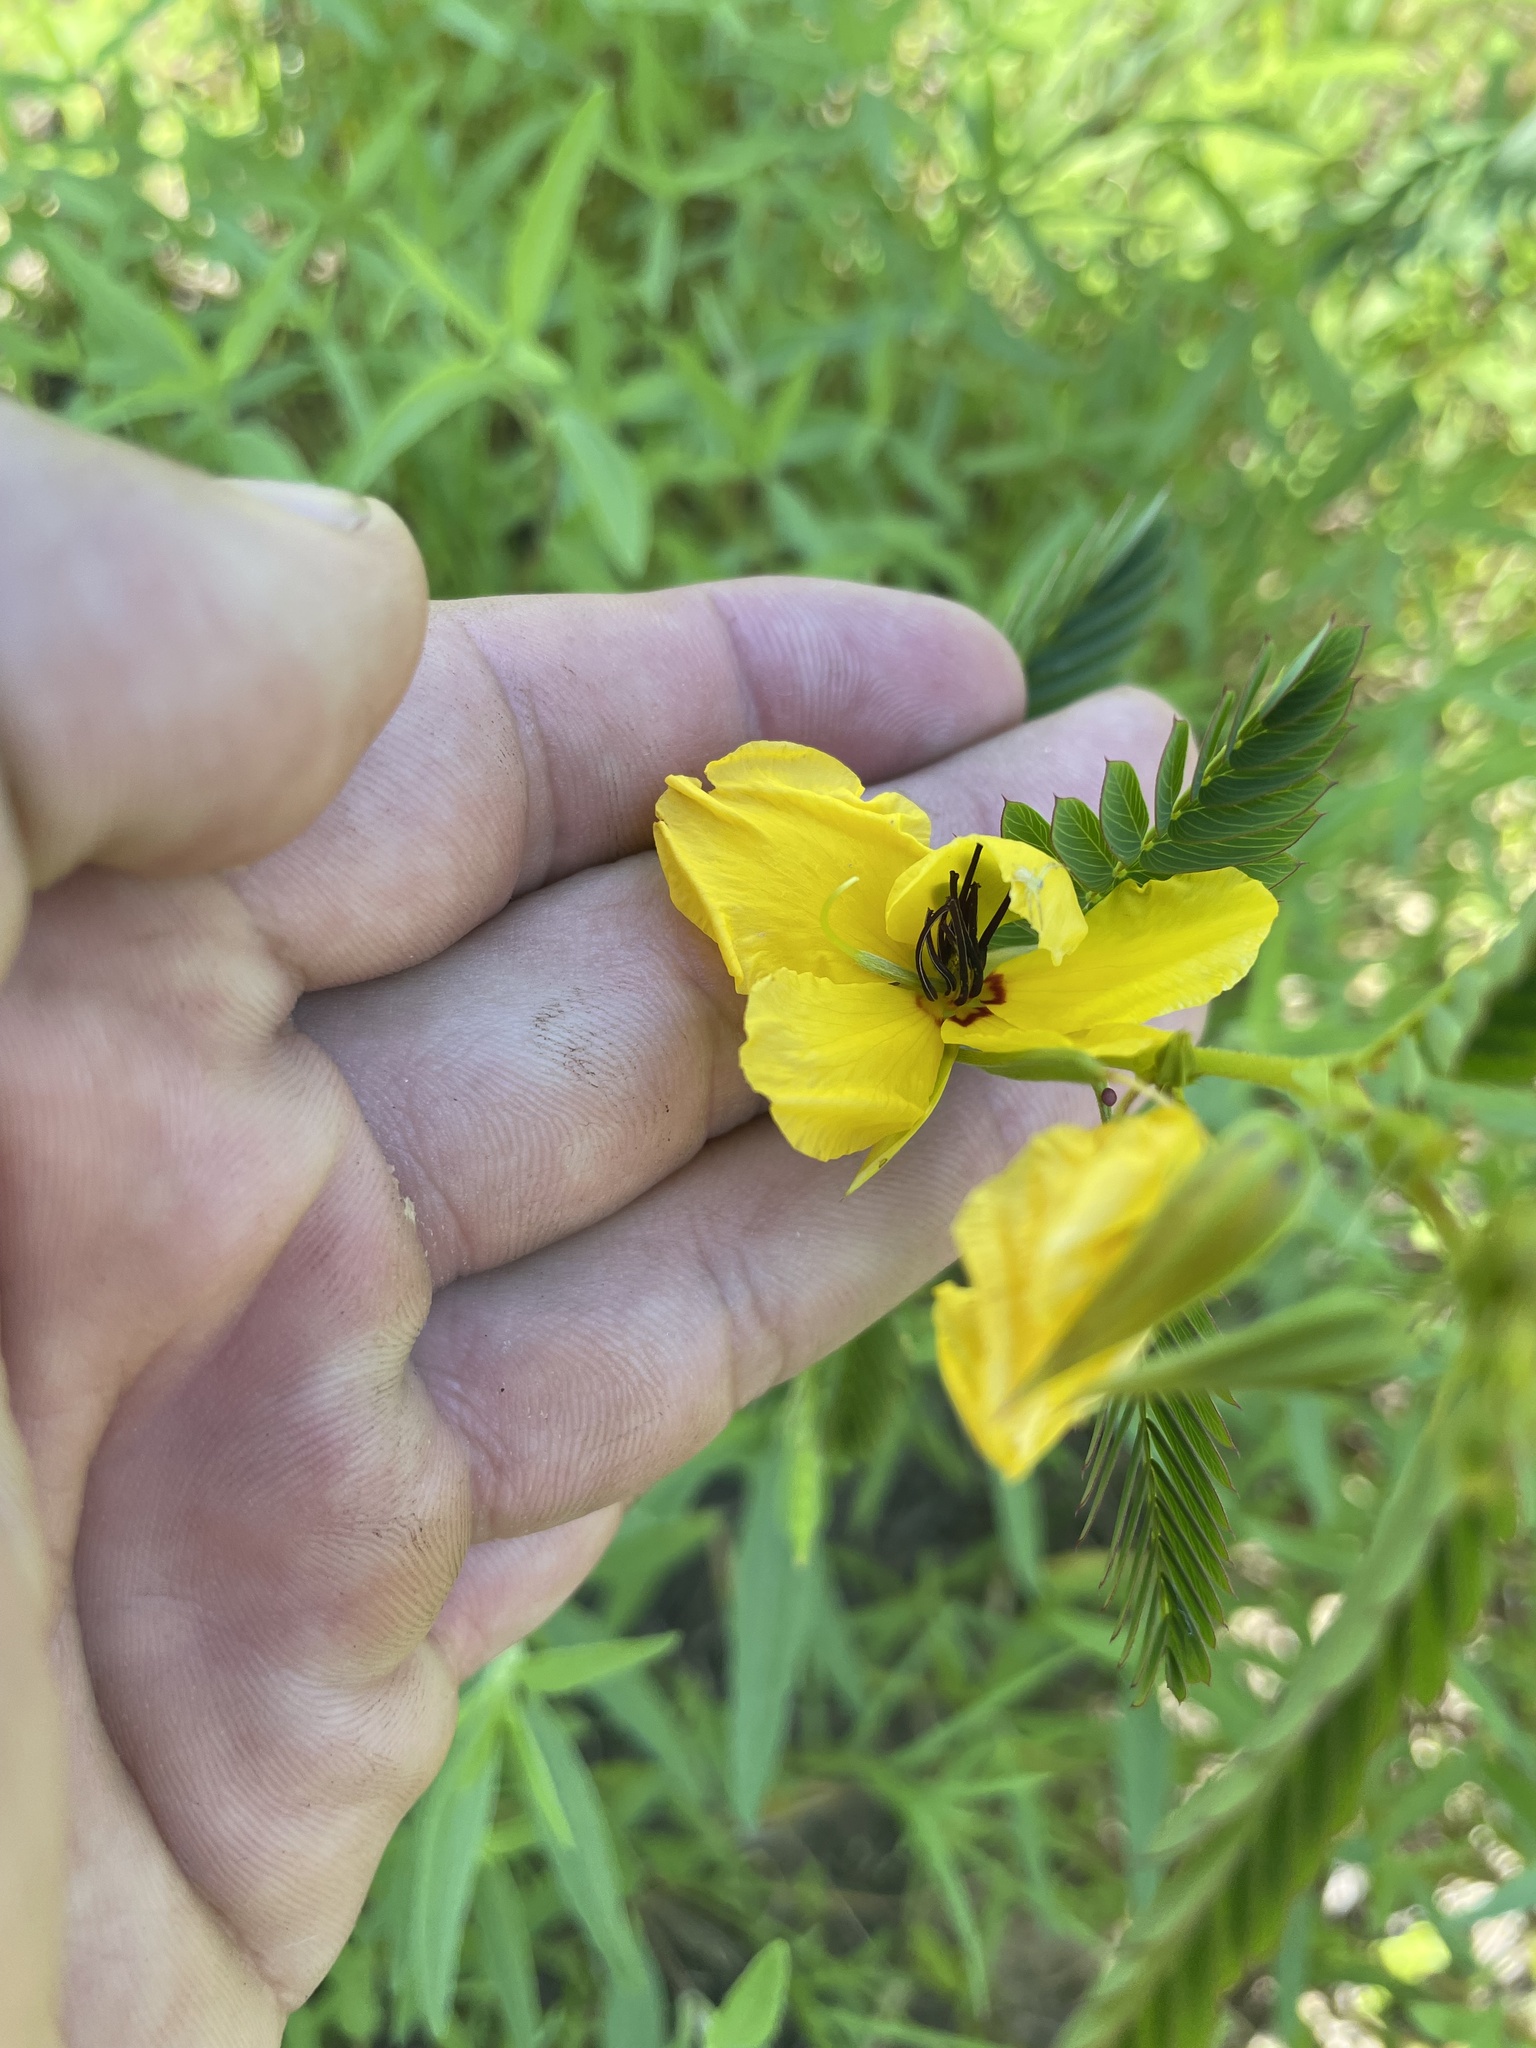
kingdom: Plantae
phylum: Tracheophyta
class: Magnoliopsida
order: Fabales
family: Fabaceae
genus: Chamaecrista
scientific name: Chamaecrista fasciculata
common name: Golden cassia
